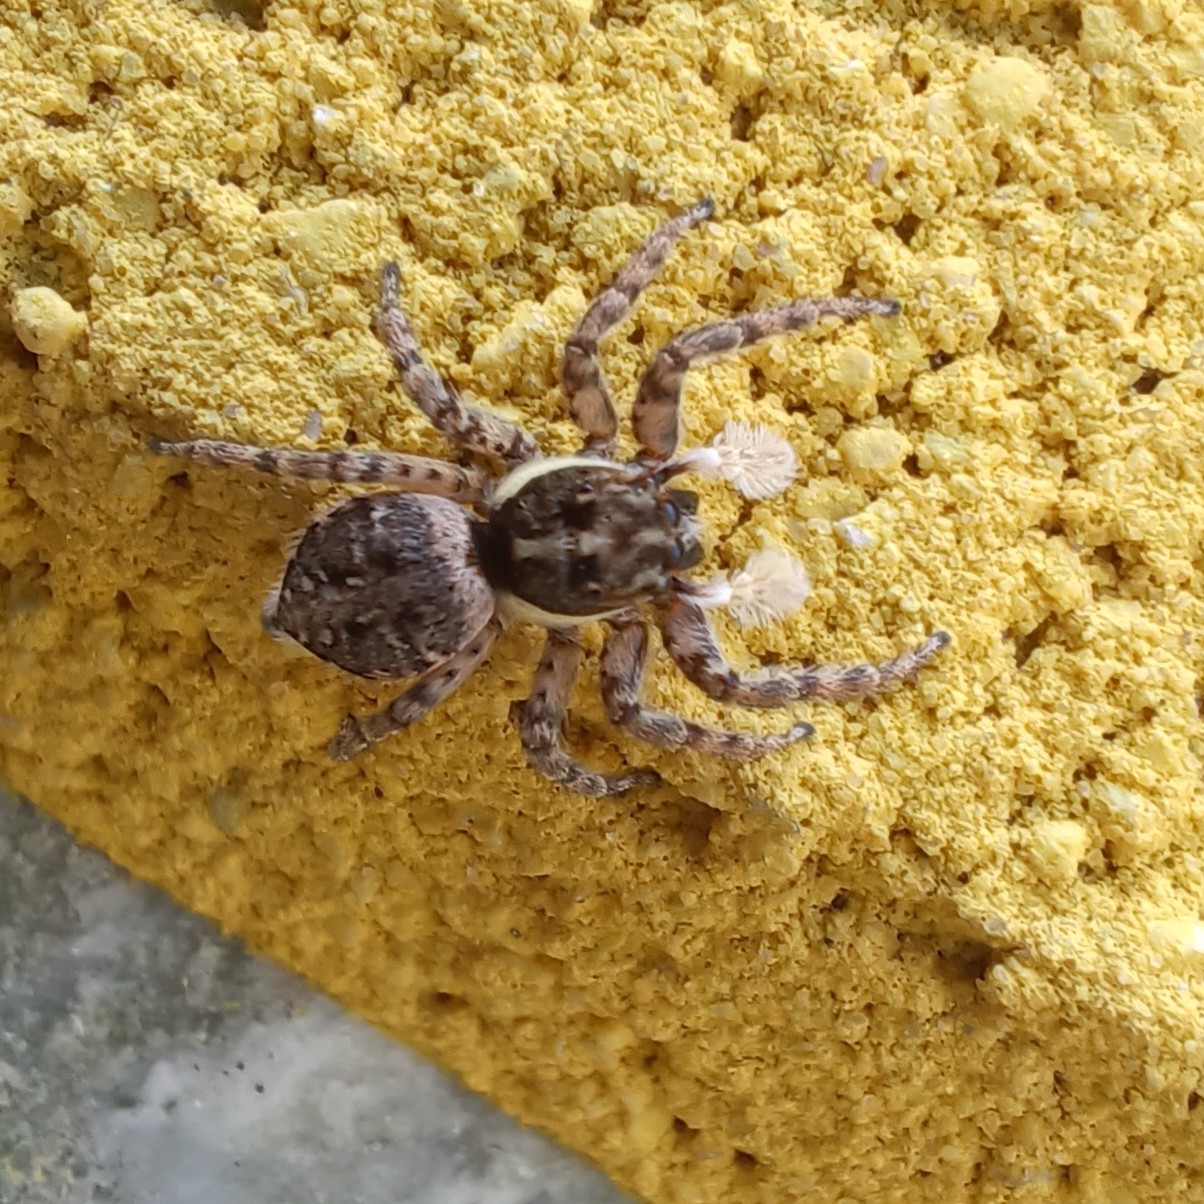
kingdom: Animalia
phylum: Arthropoda
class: Arachnida
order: Araneae
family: Salticidae
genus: Menemerus
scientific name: Menemerus semilimbatus
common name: Jumping spider
